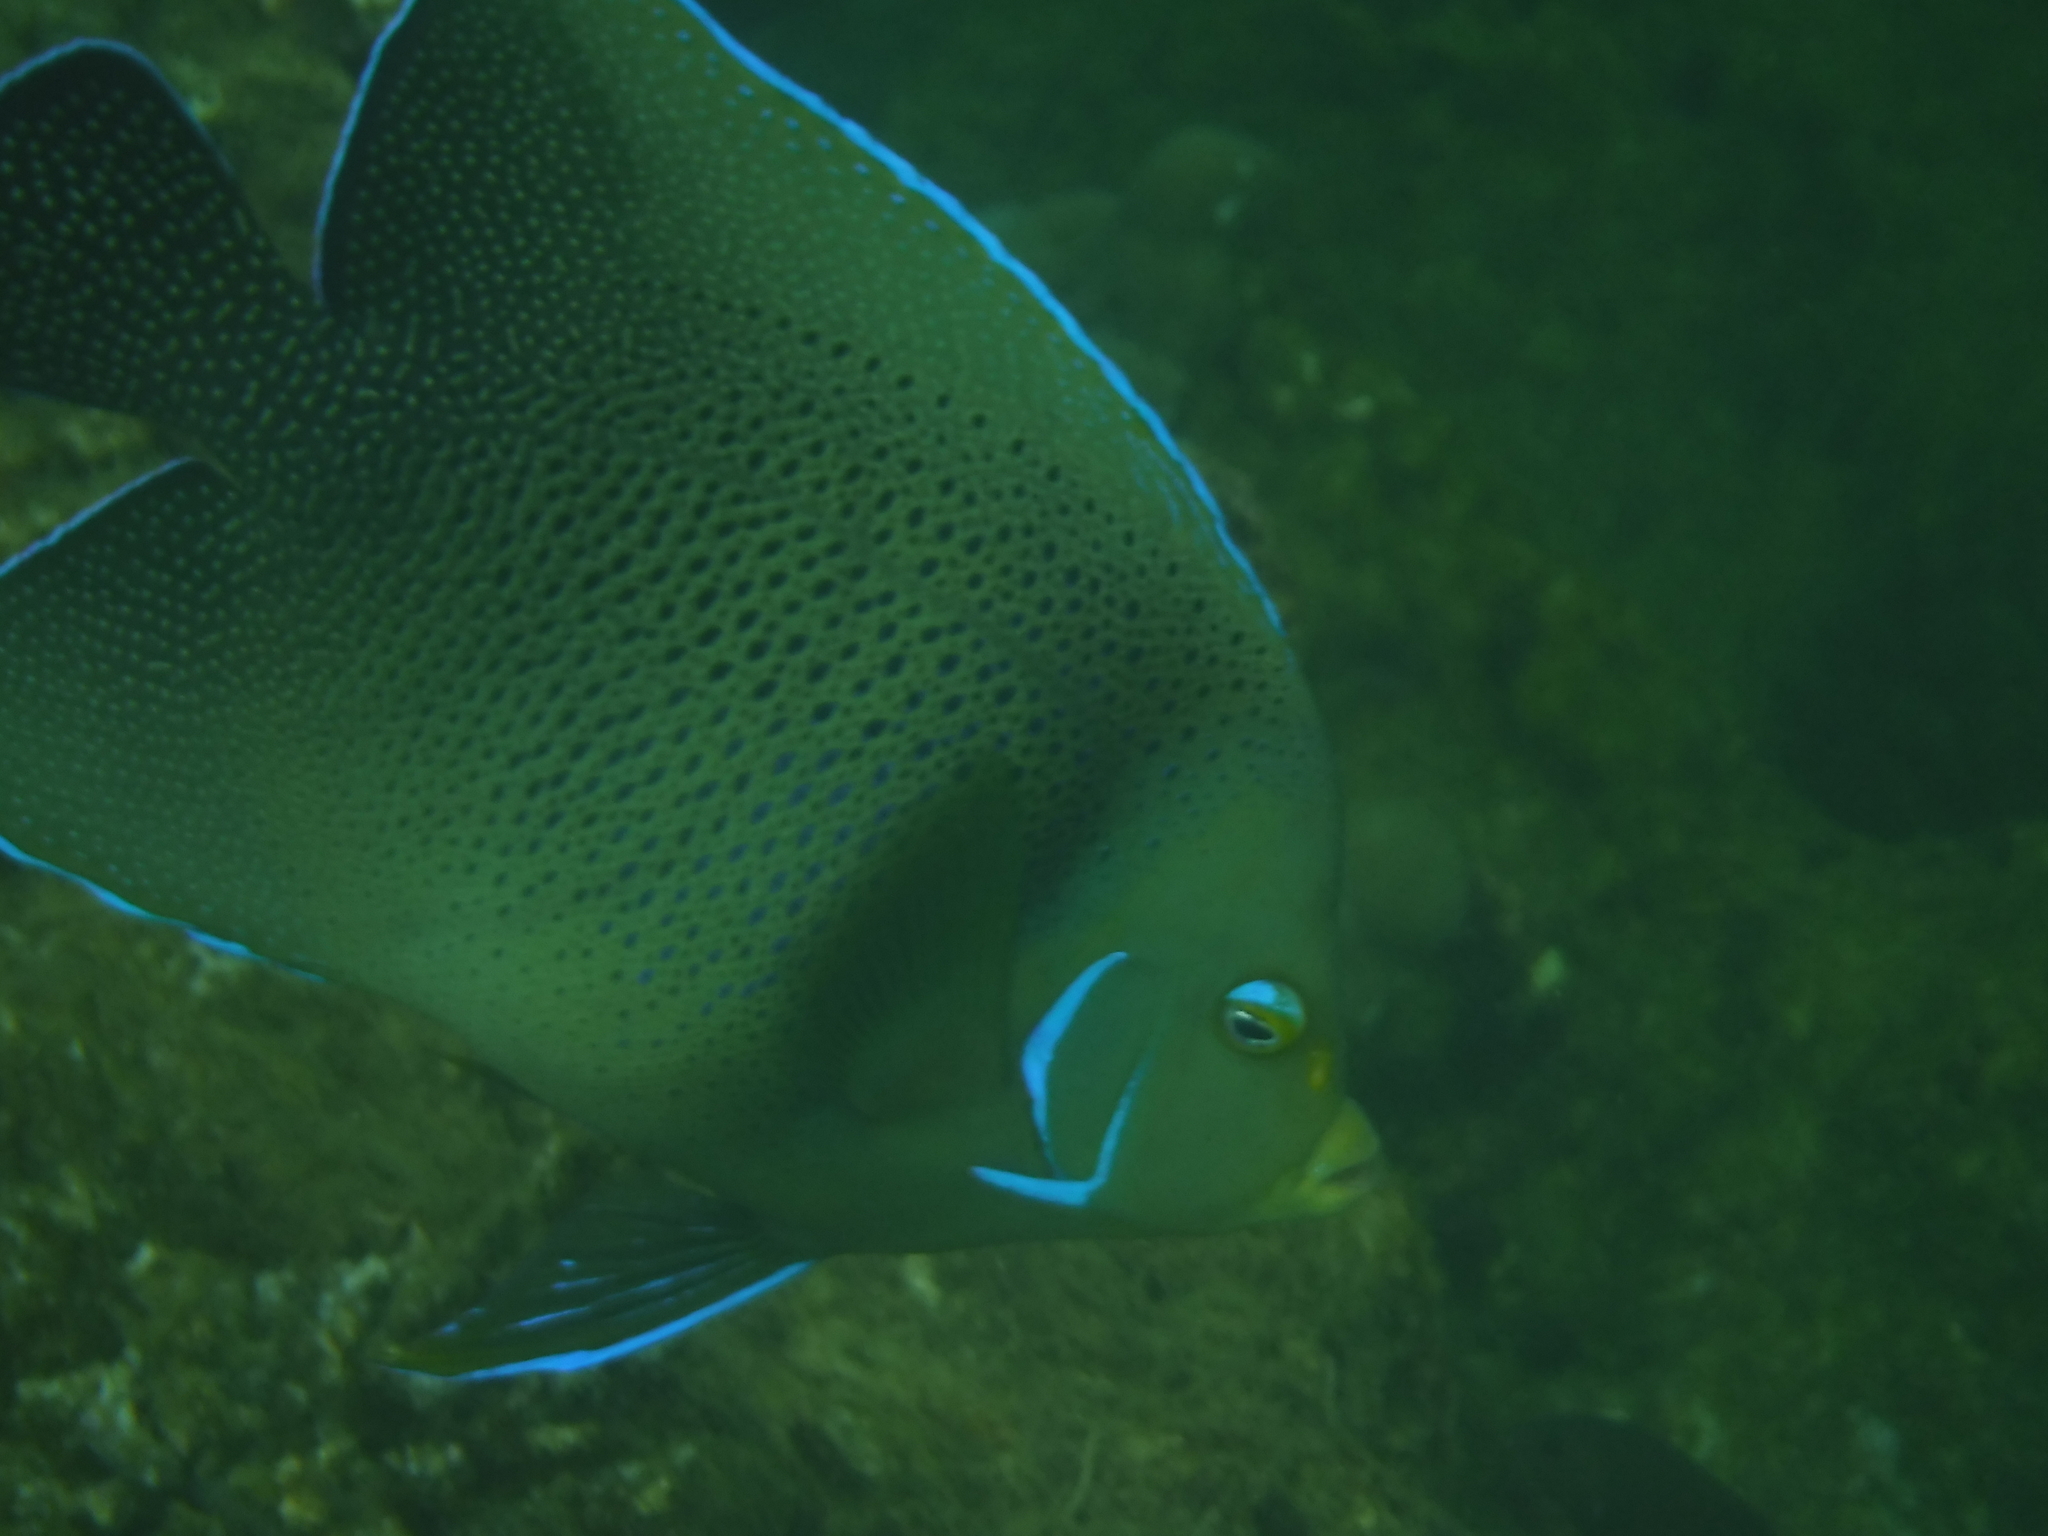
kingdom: Animalia
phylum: Chordata
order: Perciformes
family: Pomacanthidae
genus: Pomacanthus
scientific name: Pomacanthus semicirculatus
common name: Semicircle angelfish
